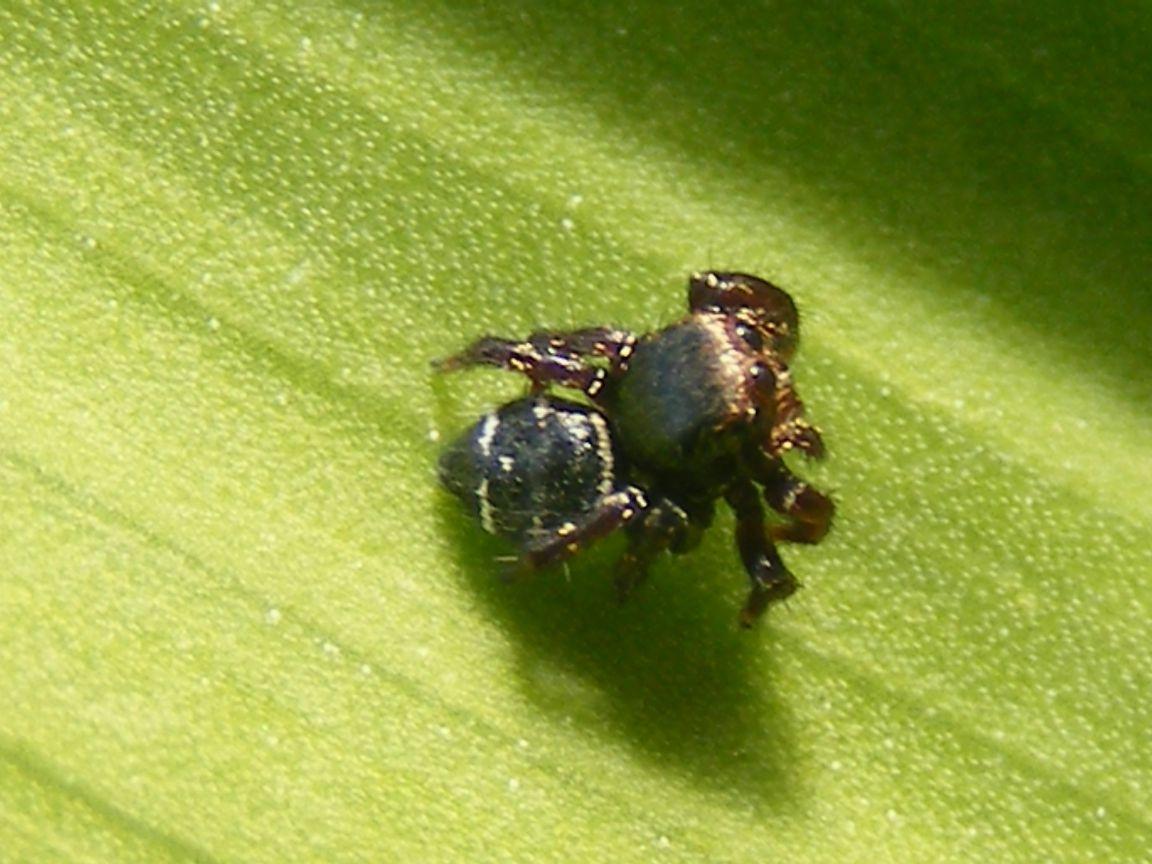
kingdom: Animalia
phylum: Arthropoda
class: Arachnida
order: Araneae
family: Salticidae
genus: Baryphas
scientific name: Baryphas ahenus
